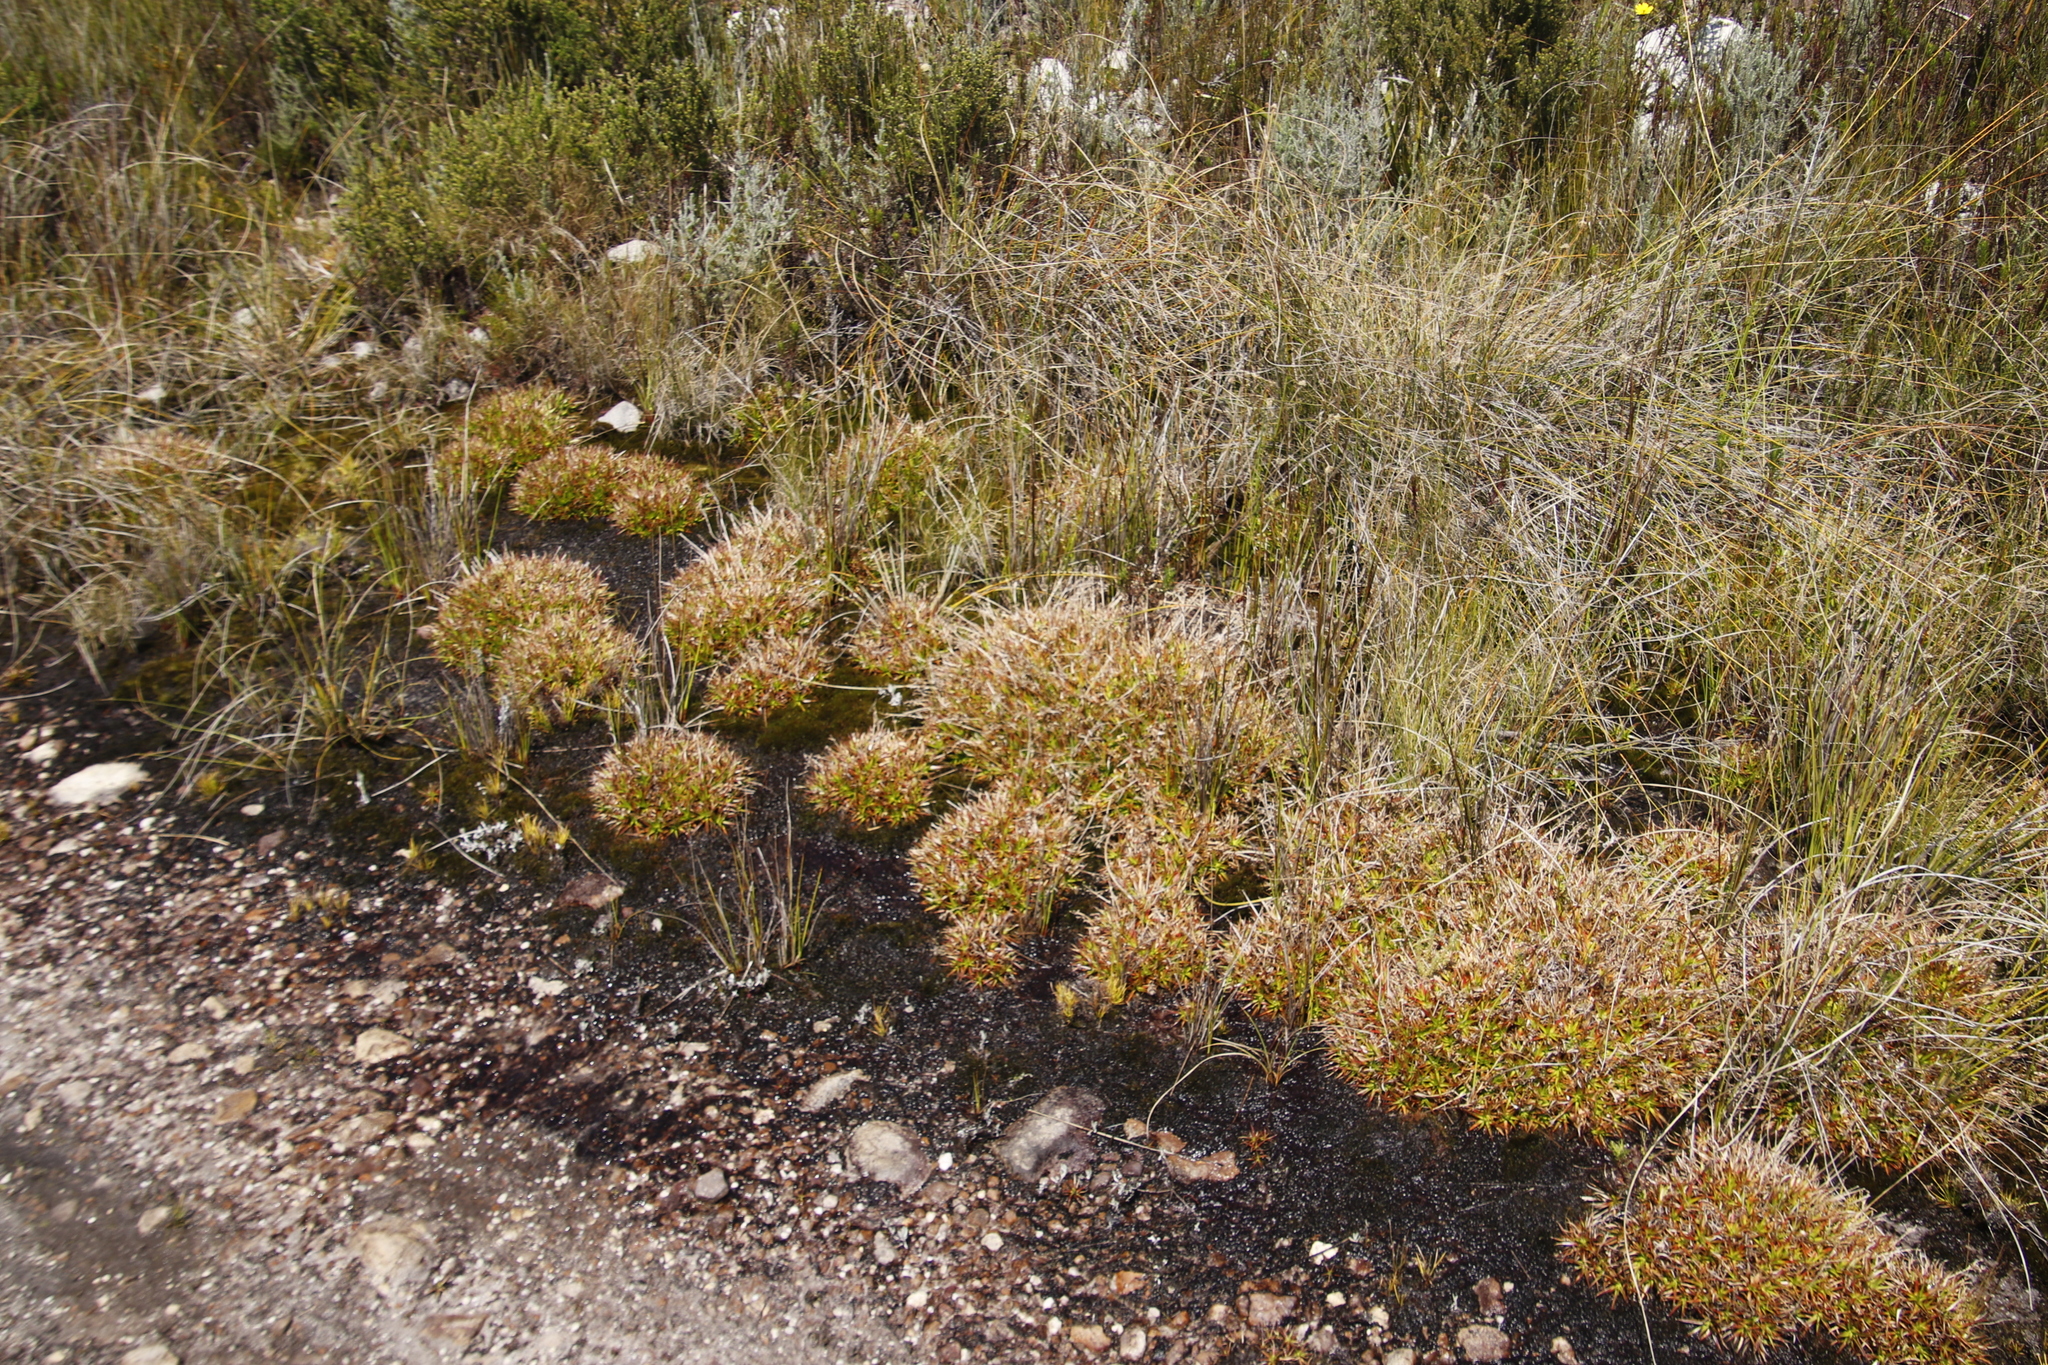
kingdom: Plantae
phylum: Tracheophyta
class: Liliopsida
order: Poales
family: Juncaceae
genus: Juncus
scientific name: Juncus lomatophyllus
